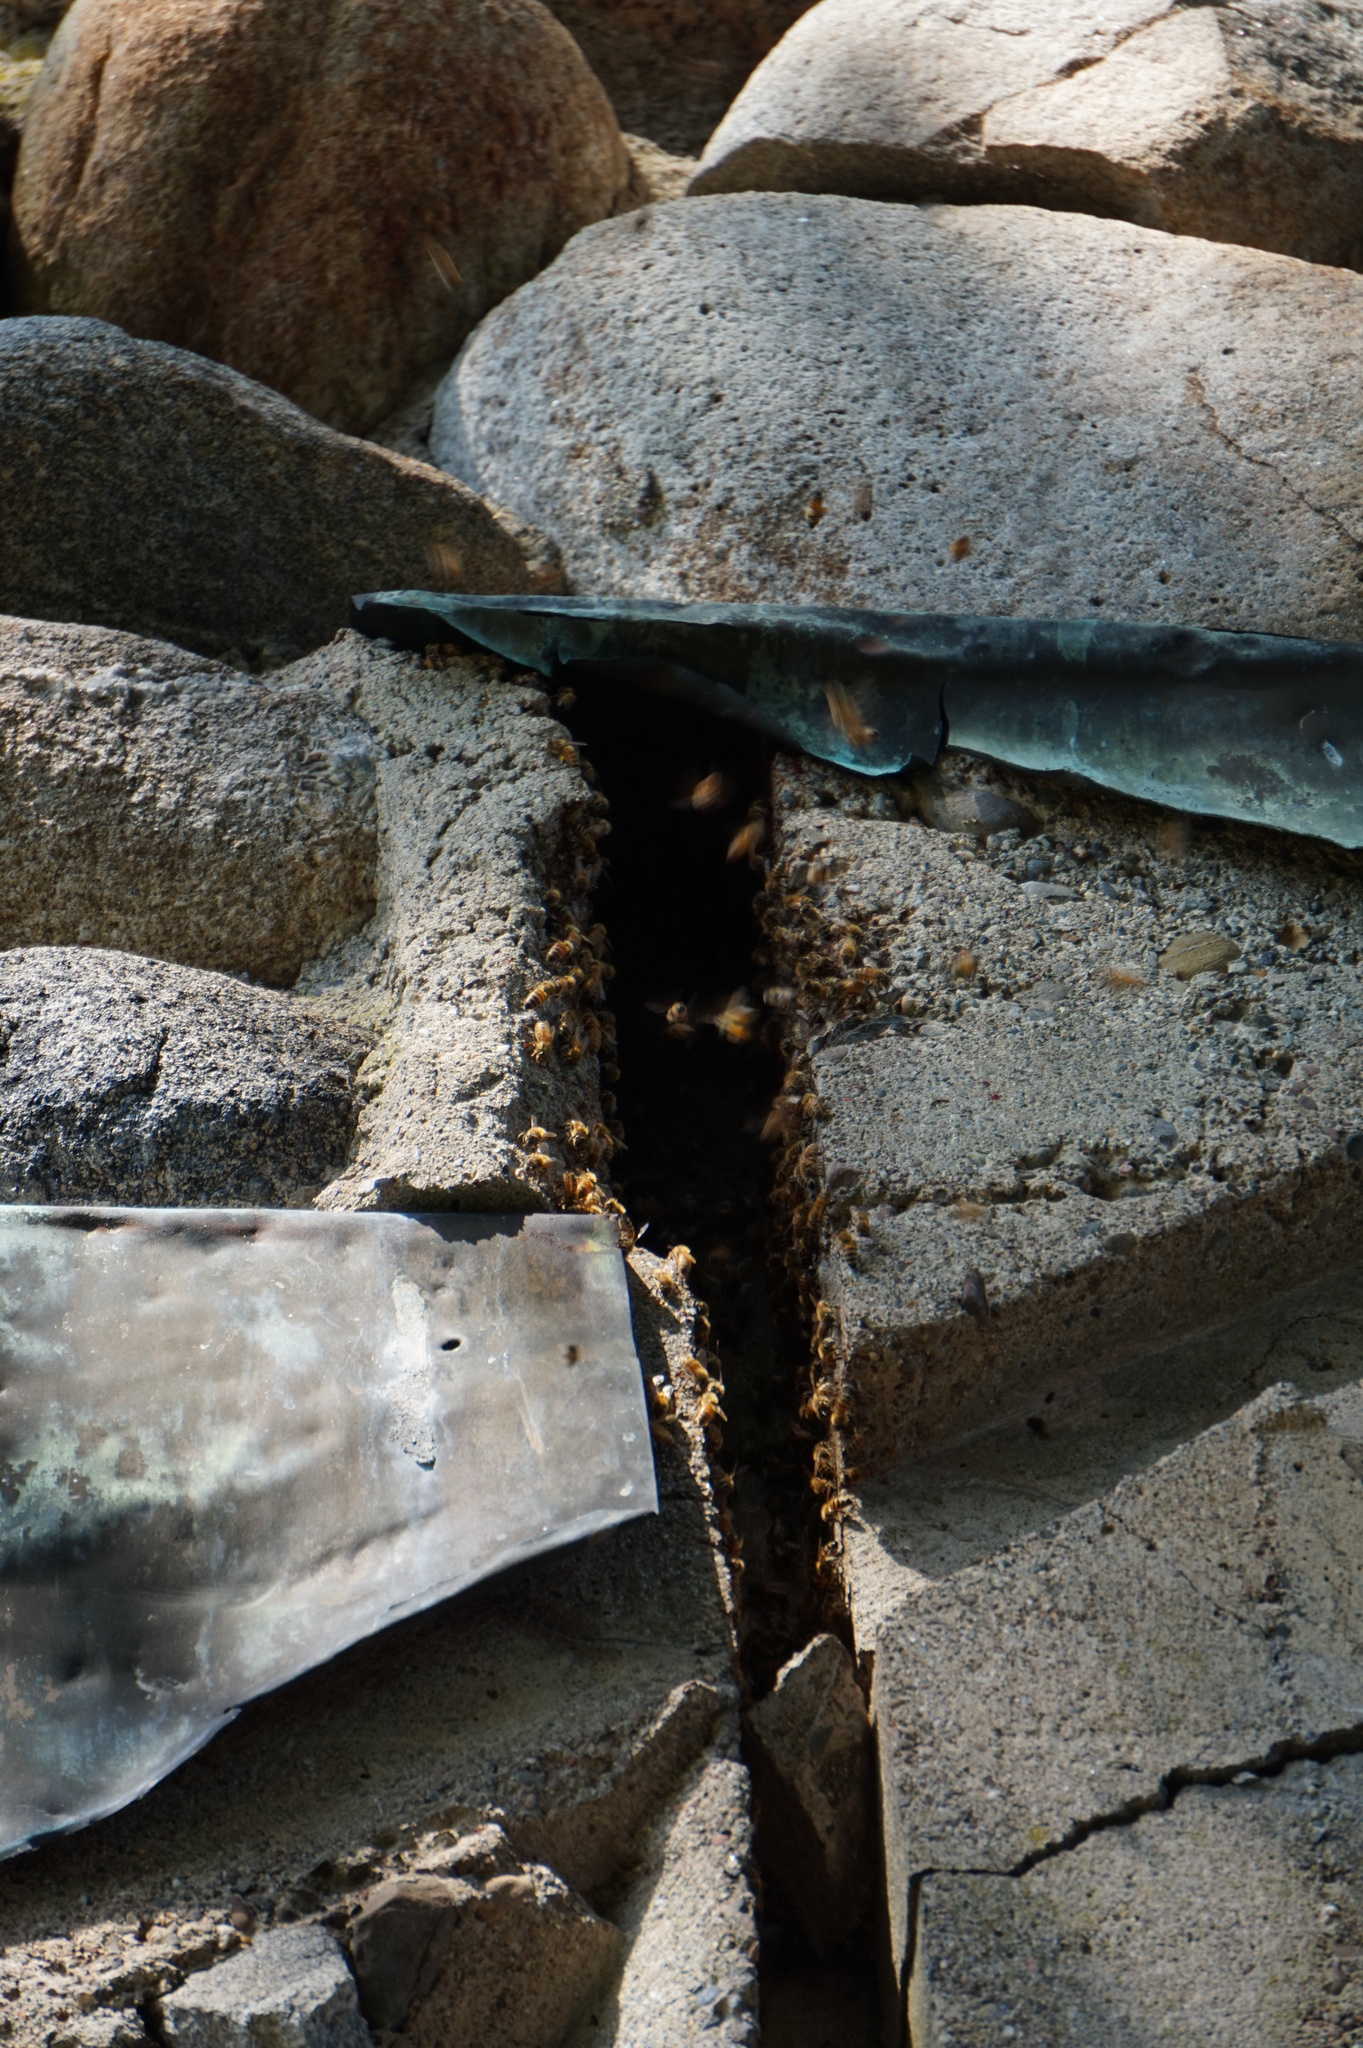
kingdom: Animalia
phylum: Arthropoda
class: Insecta
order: Hymenoptera
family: Apidae
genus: Apis
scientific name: Apis mellifera
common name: Honey bee
